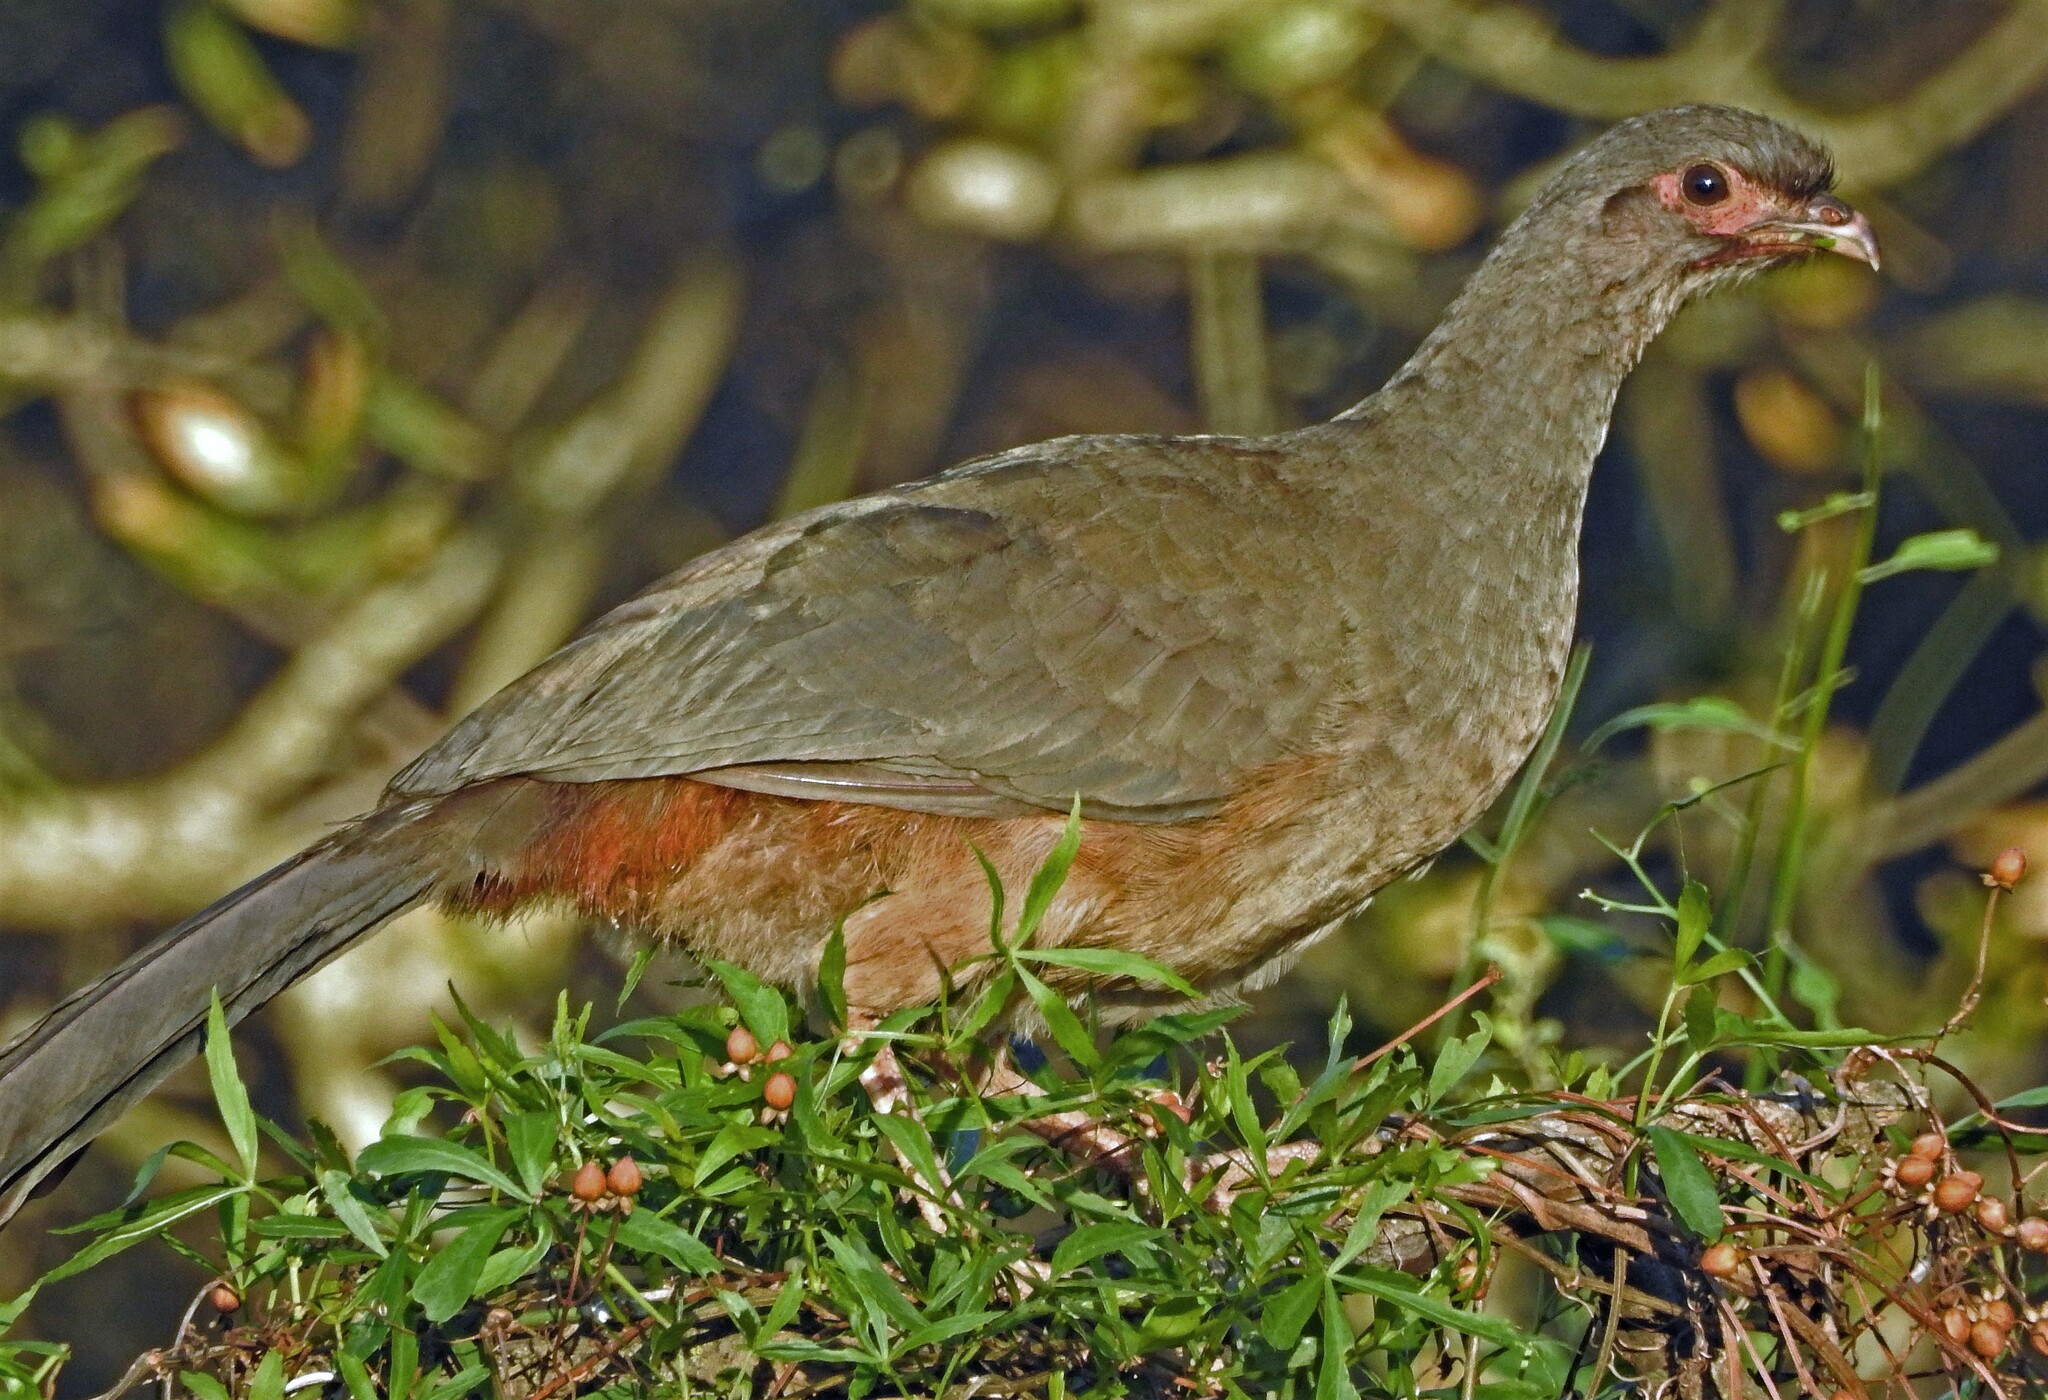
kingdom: Animalia
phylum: Chordata
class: Aves
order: Galliformes
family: Cracidae
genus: Ortalis
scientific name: Ortalis canicollis
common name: Chaco chachalaca
